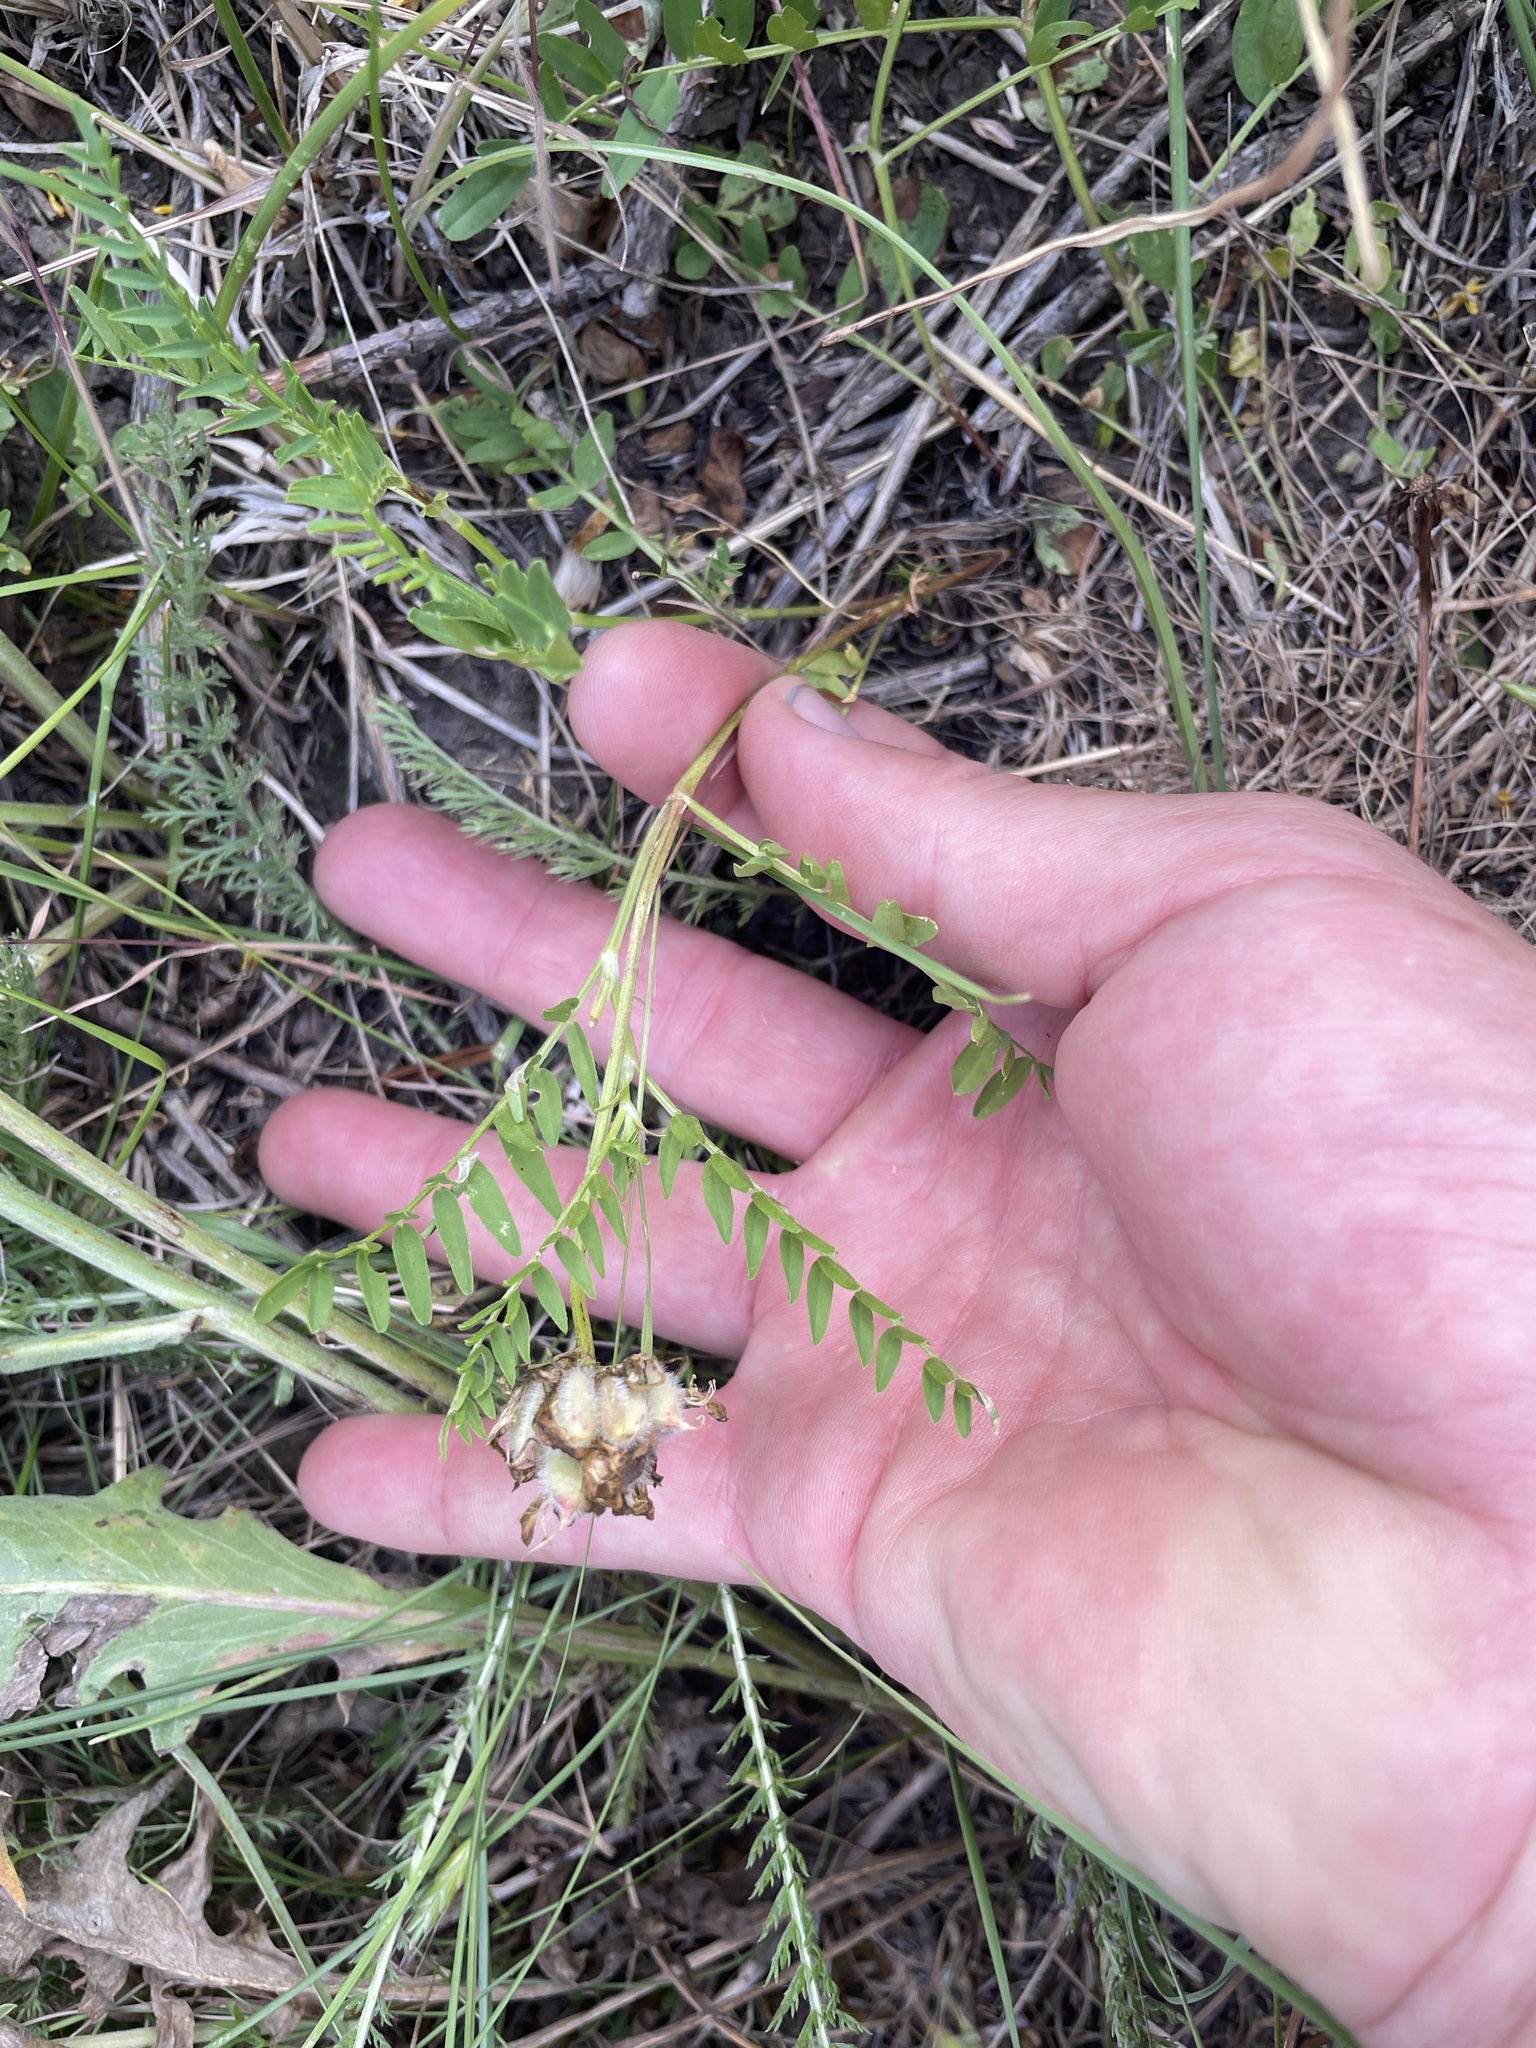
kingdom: Plantae
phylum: Tracheophyta
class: Magnoliopsida
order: Fabales
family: Fabaceae
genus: Astragalus
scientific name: Astragalus agrestis
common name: Field milk-vetch
